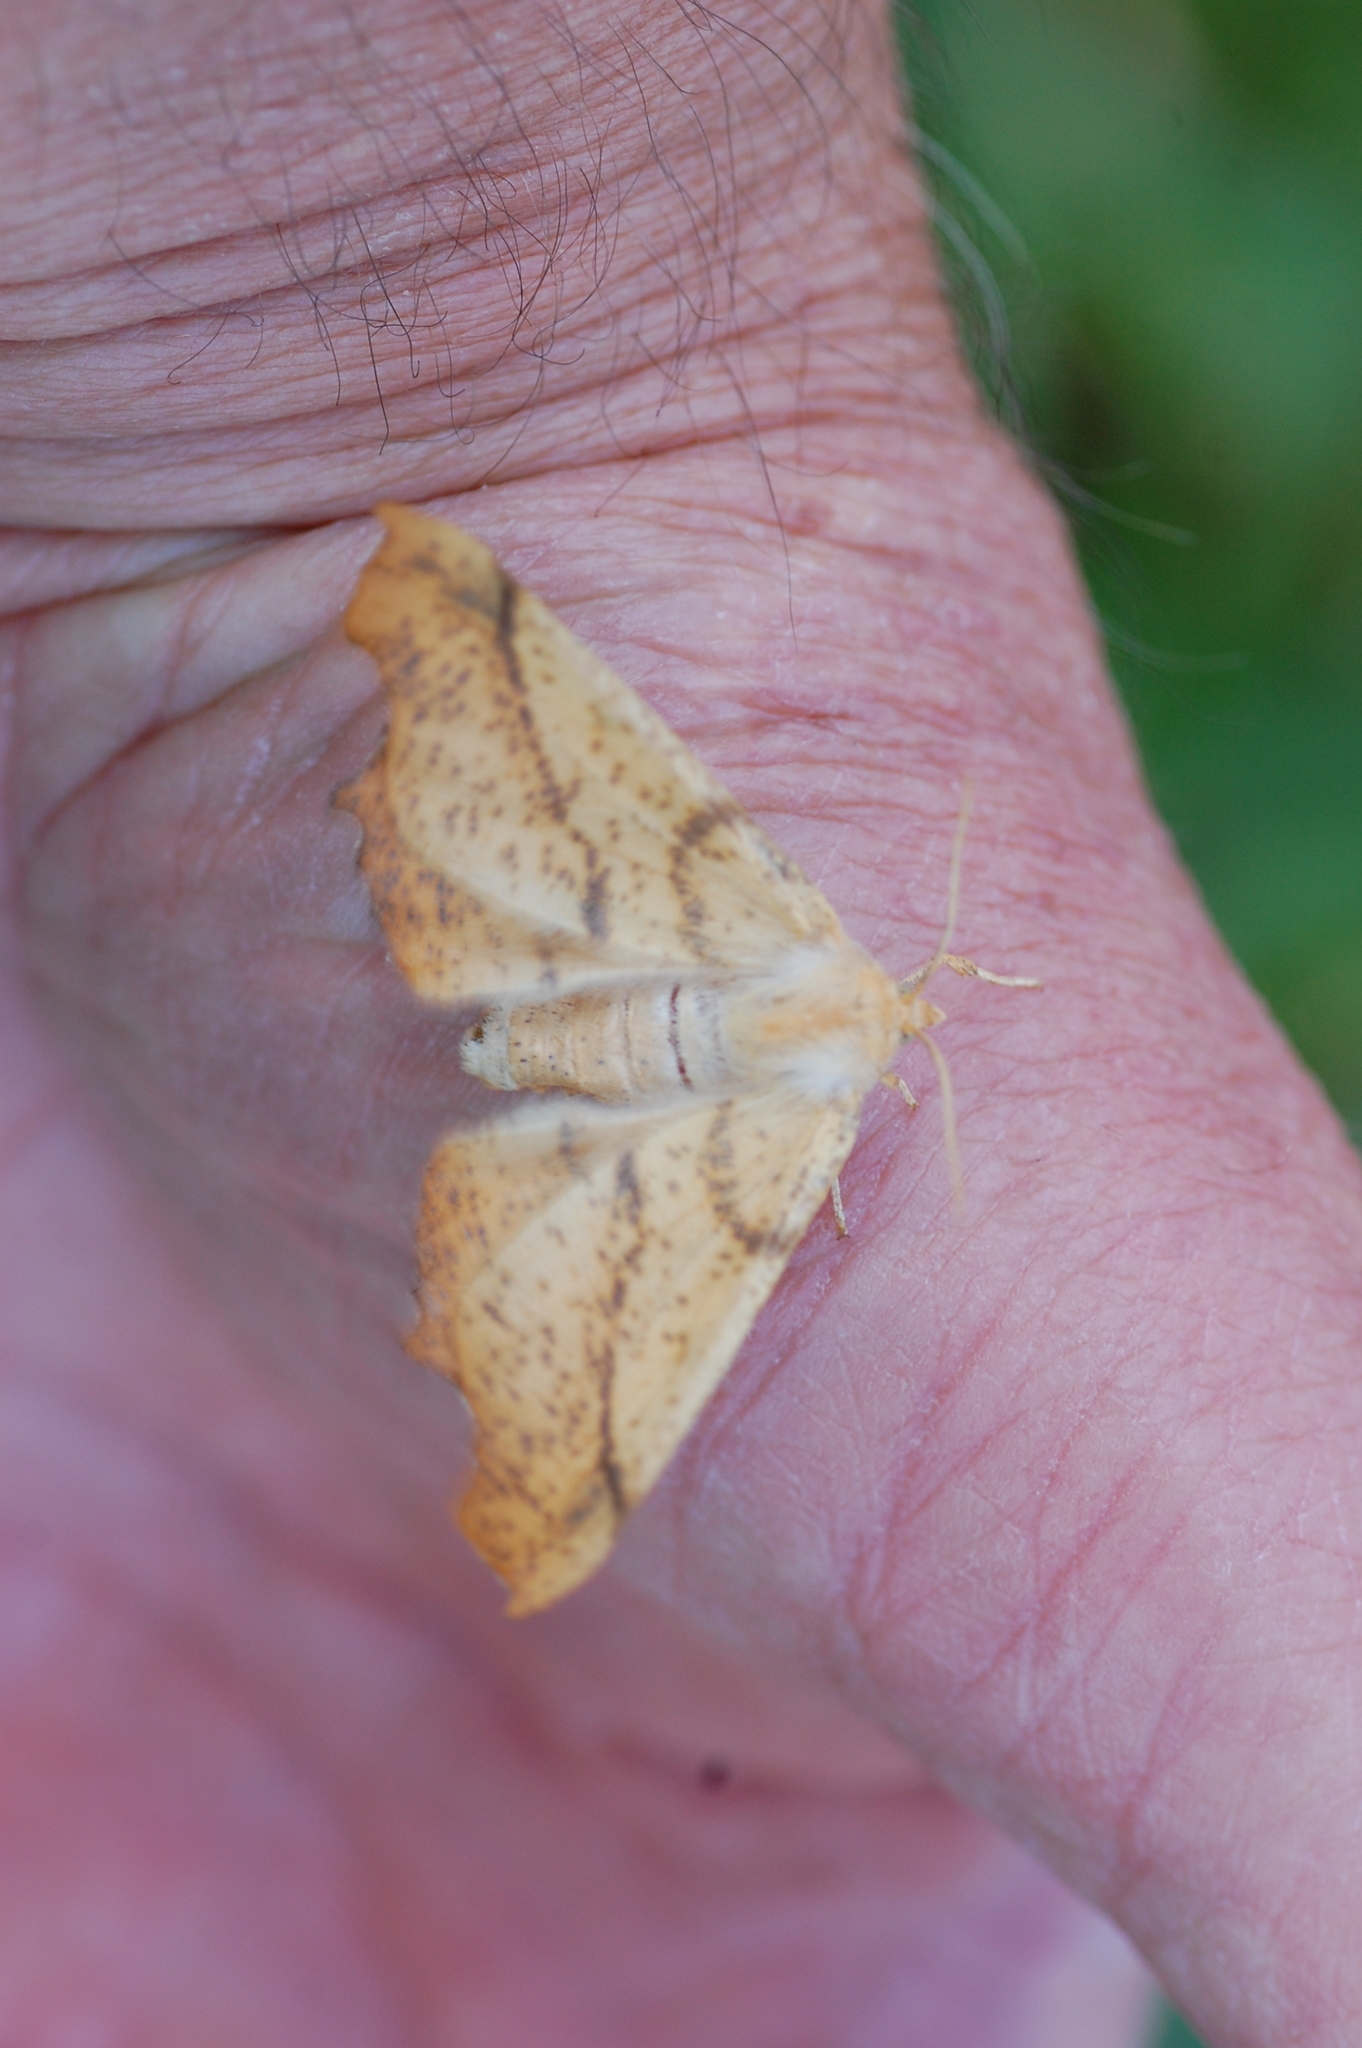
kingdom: Animalia
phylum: Arthropoda
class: Insecta
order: Lepidoptera
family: Geometridae
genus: Ennomos
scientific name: Ennomos magnaria
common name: Maple spanworm
